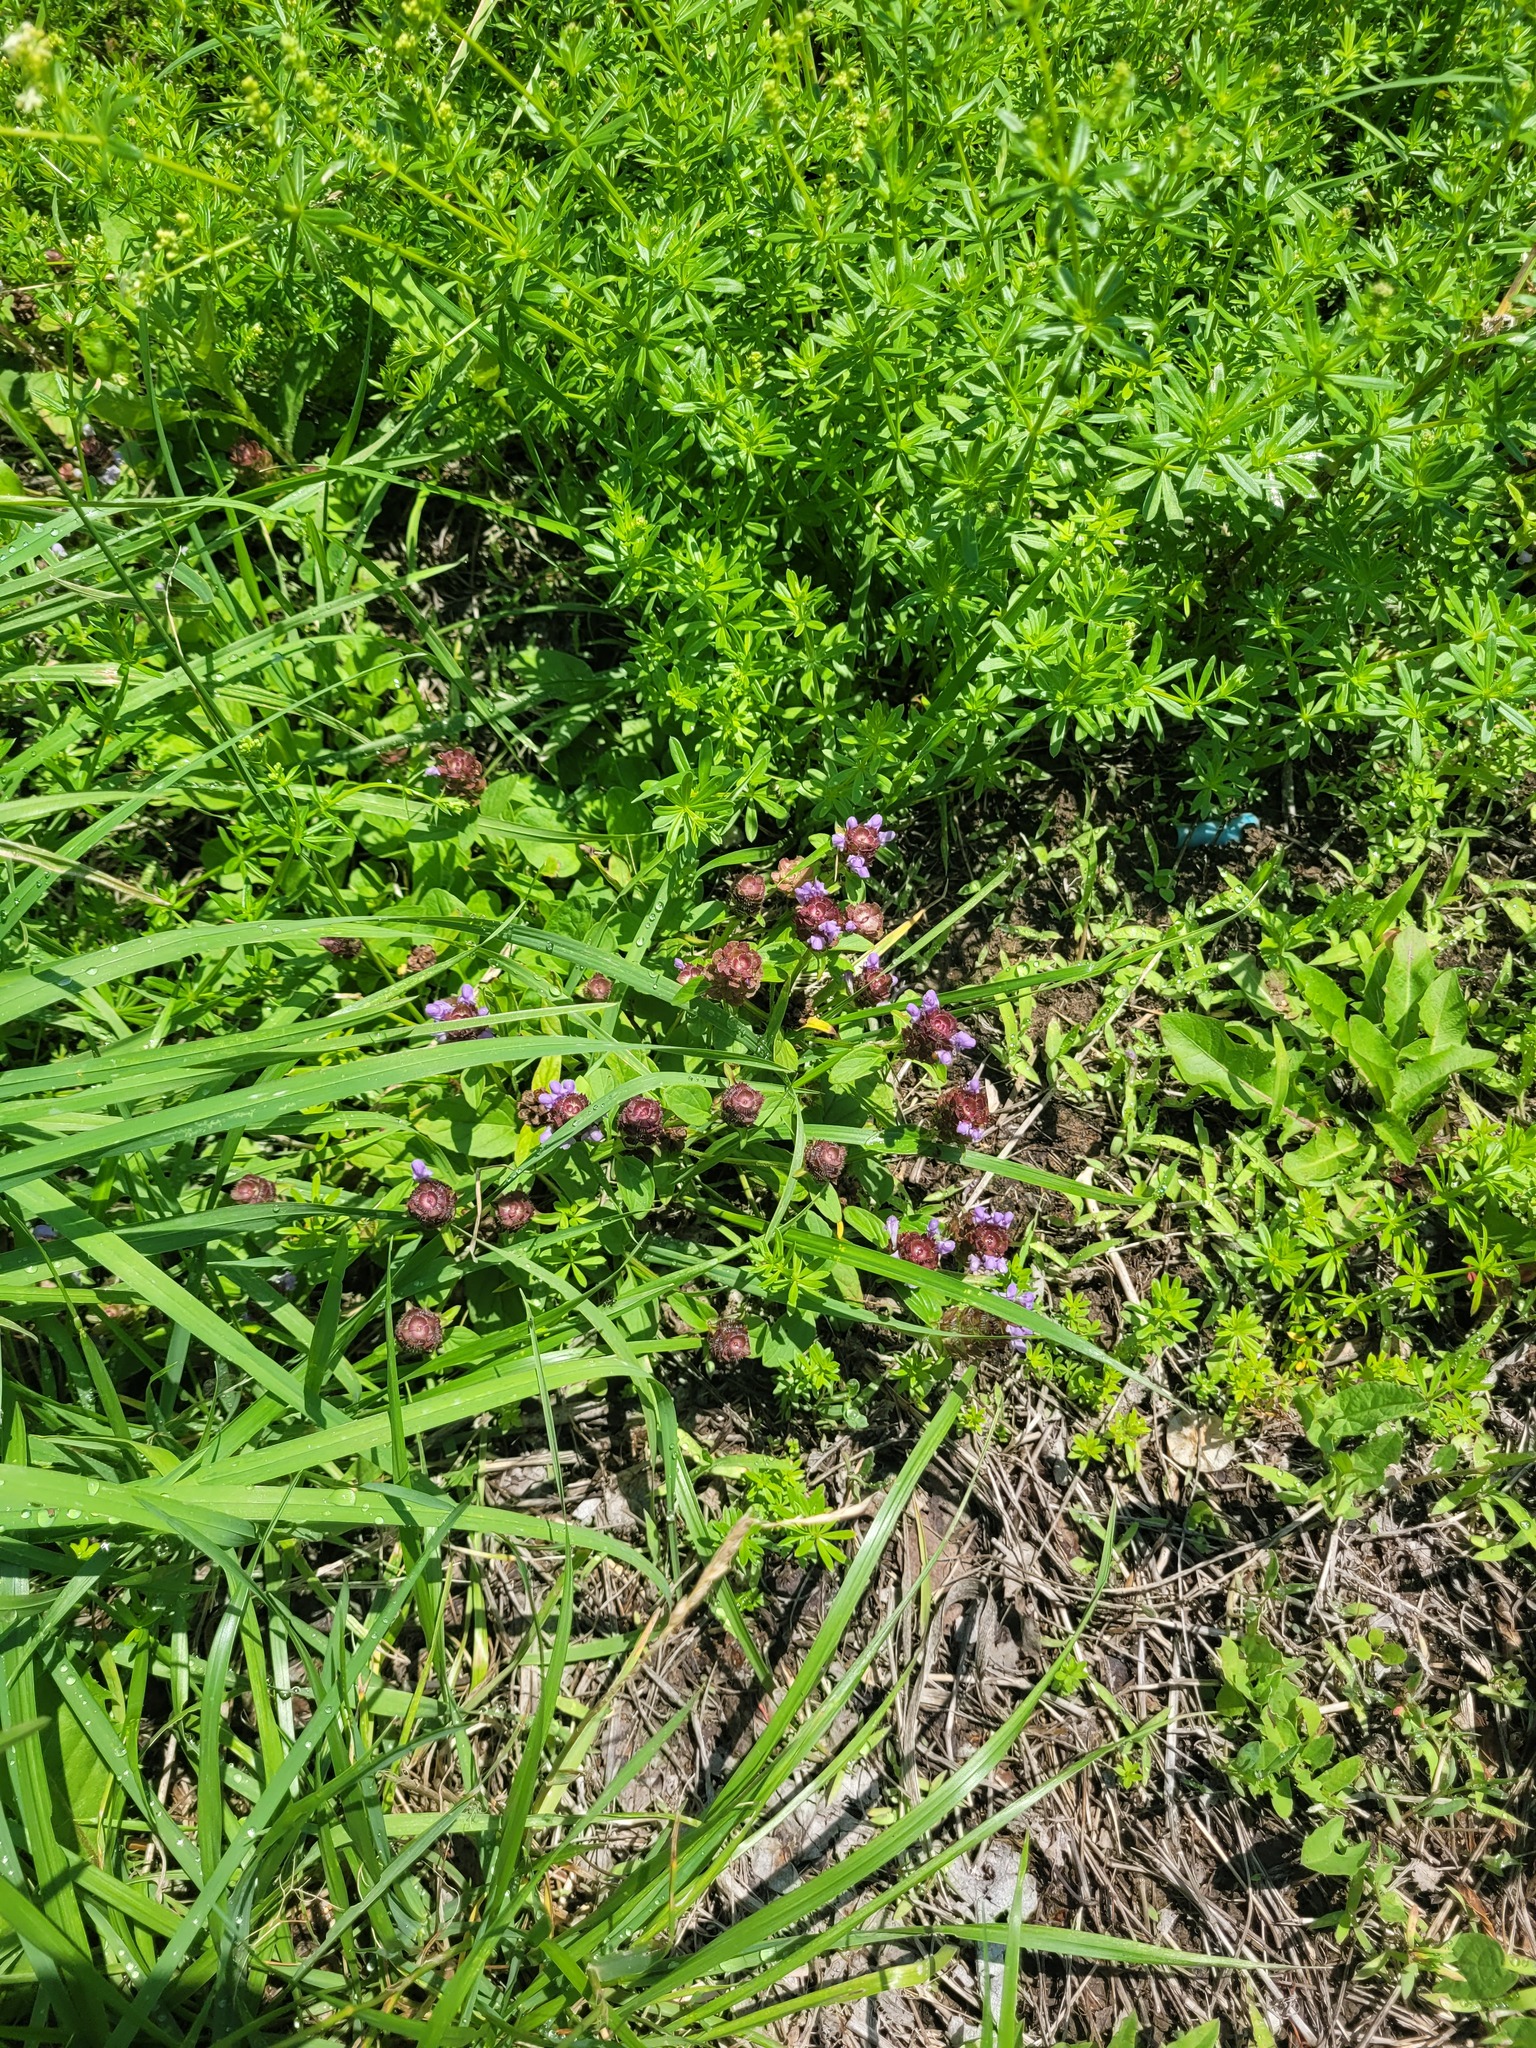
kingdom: Plantae
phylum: Tracheophyta
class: Magnoliopsida
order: Lamiales
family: Lamiaceae
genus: Prunella
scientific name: Prunella vulgaris
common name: Heal-all
